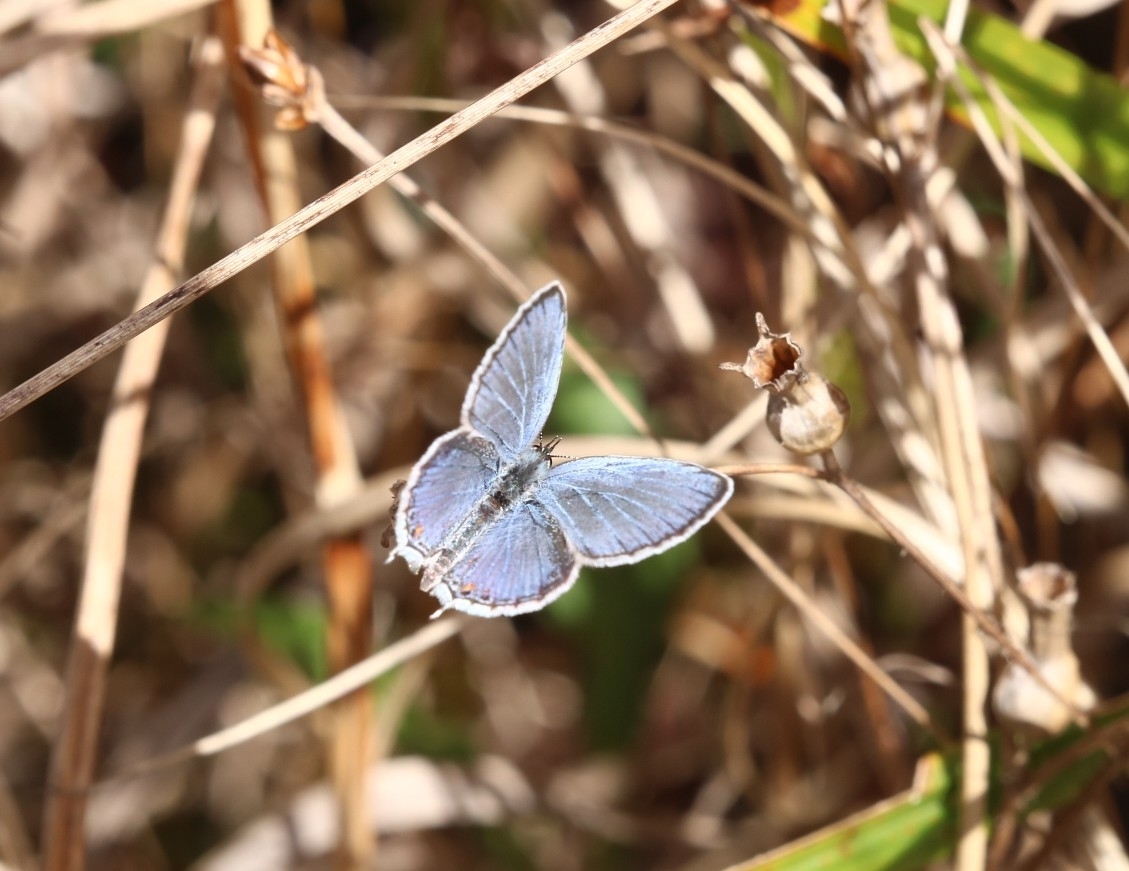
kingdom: Animalia
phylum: Arthropoda
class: Insecta
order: Lepidoptera
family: Lycaenidae
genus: Elkalyce
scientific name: Elkalyce comyntas
